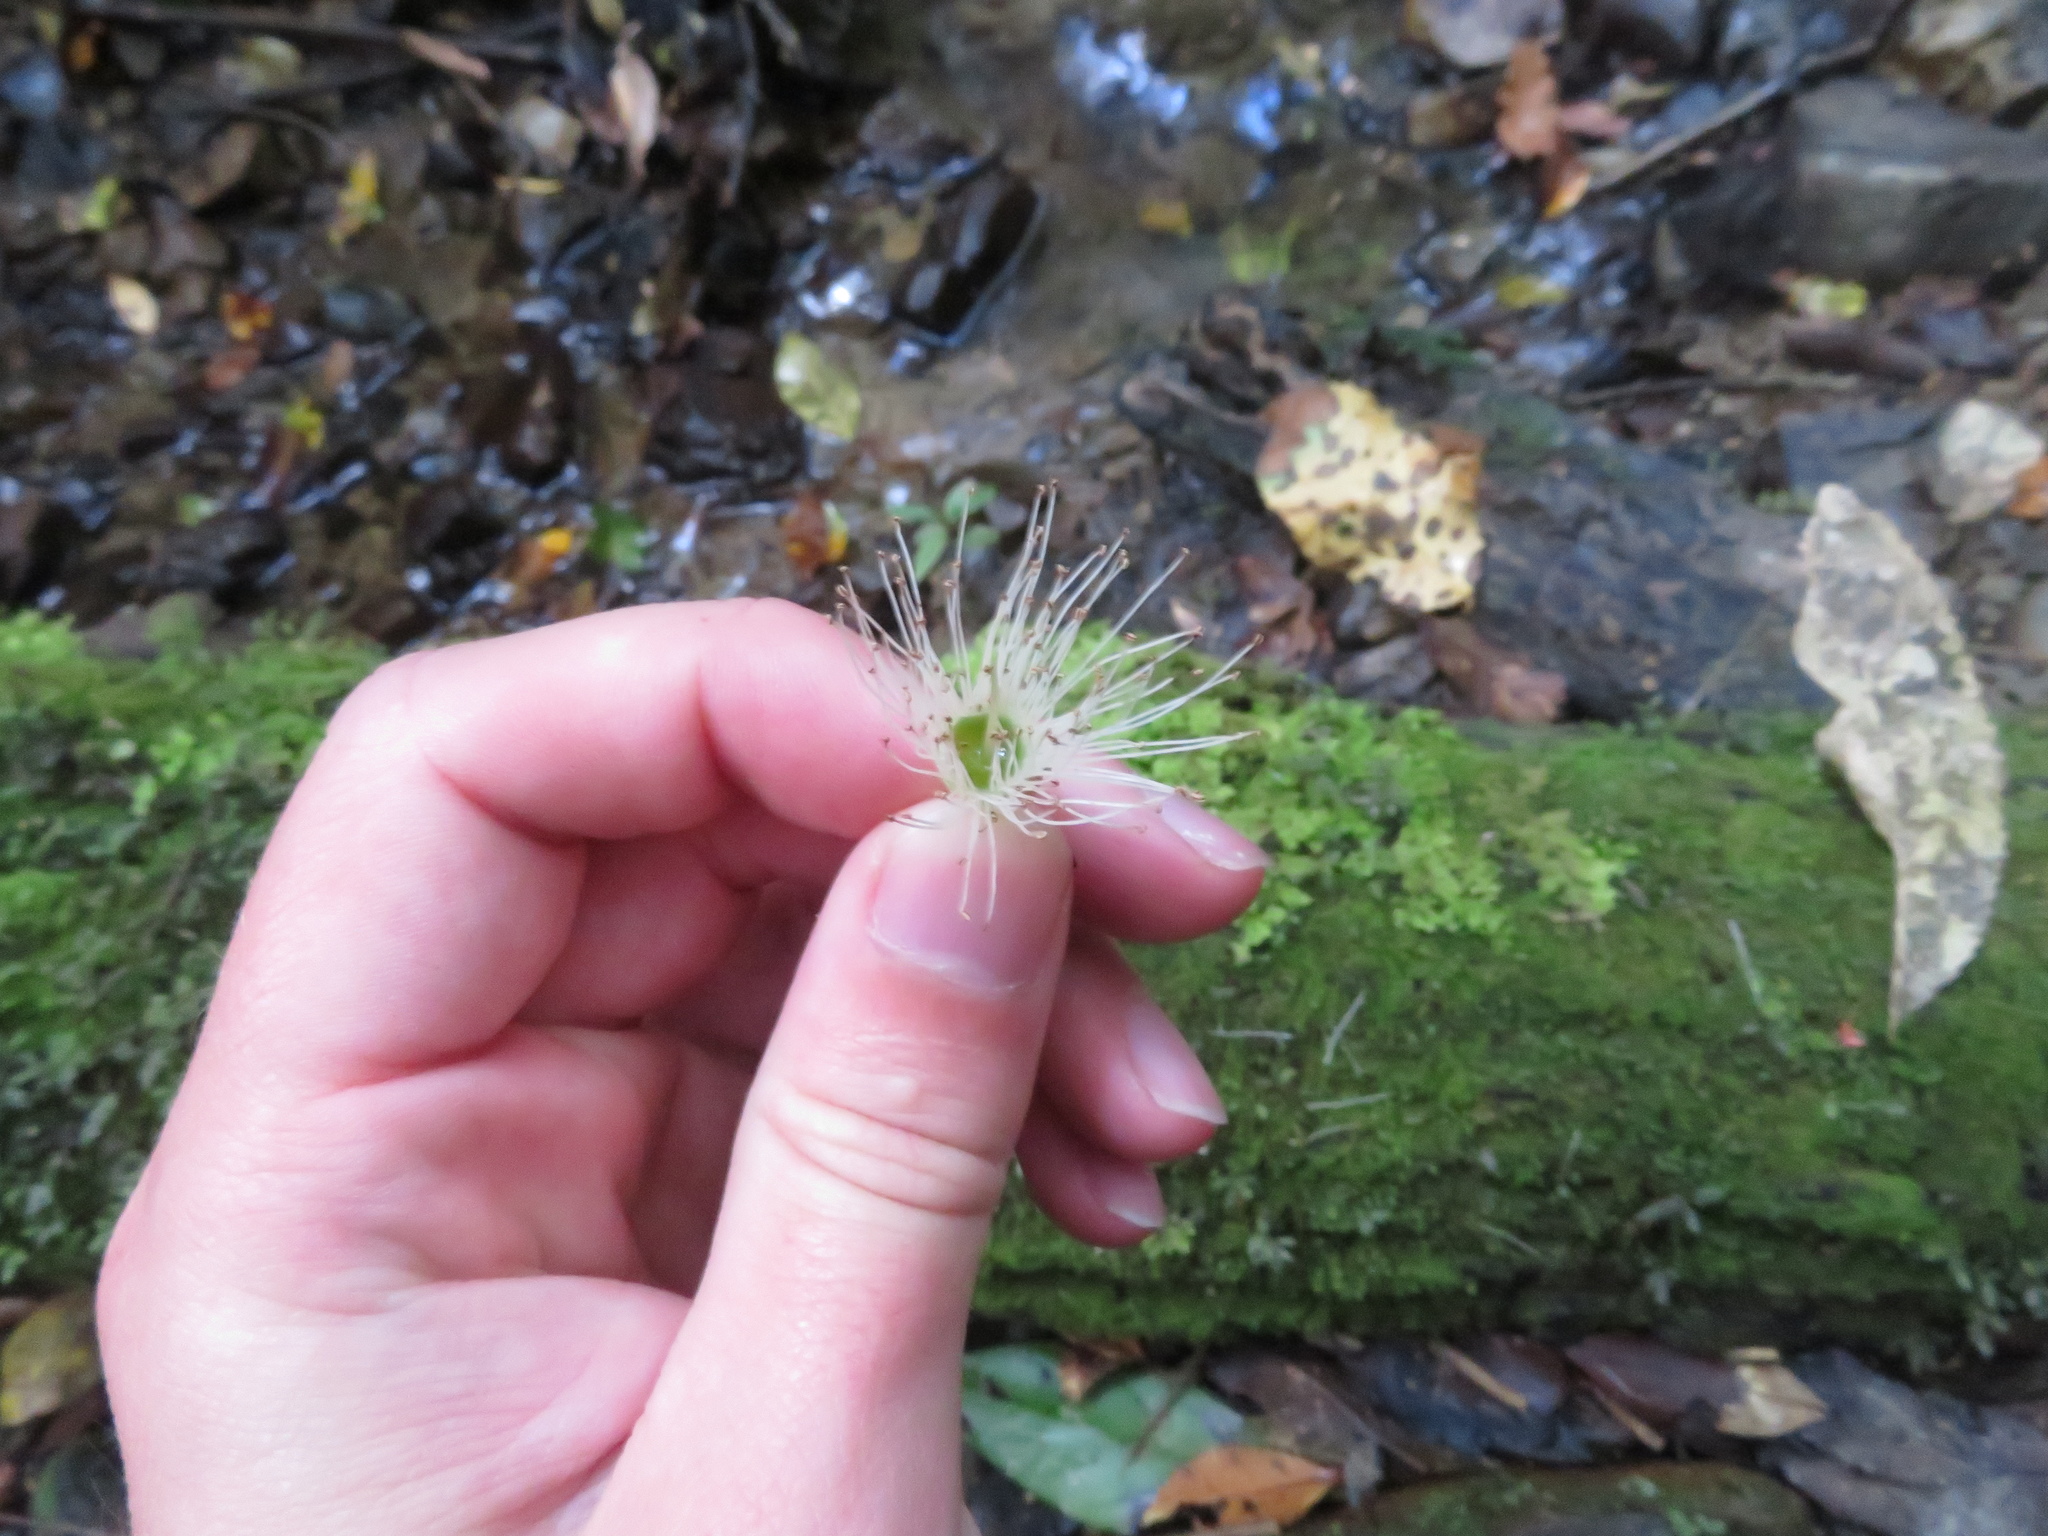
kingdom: Plantae
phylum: Tracheophyta
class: Magnoliopsida
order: Myrtales
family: Myrtaceae
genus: Metrosideros
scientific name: Metrosideros diffusa
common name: Small ratavine
